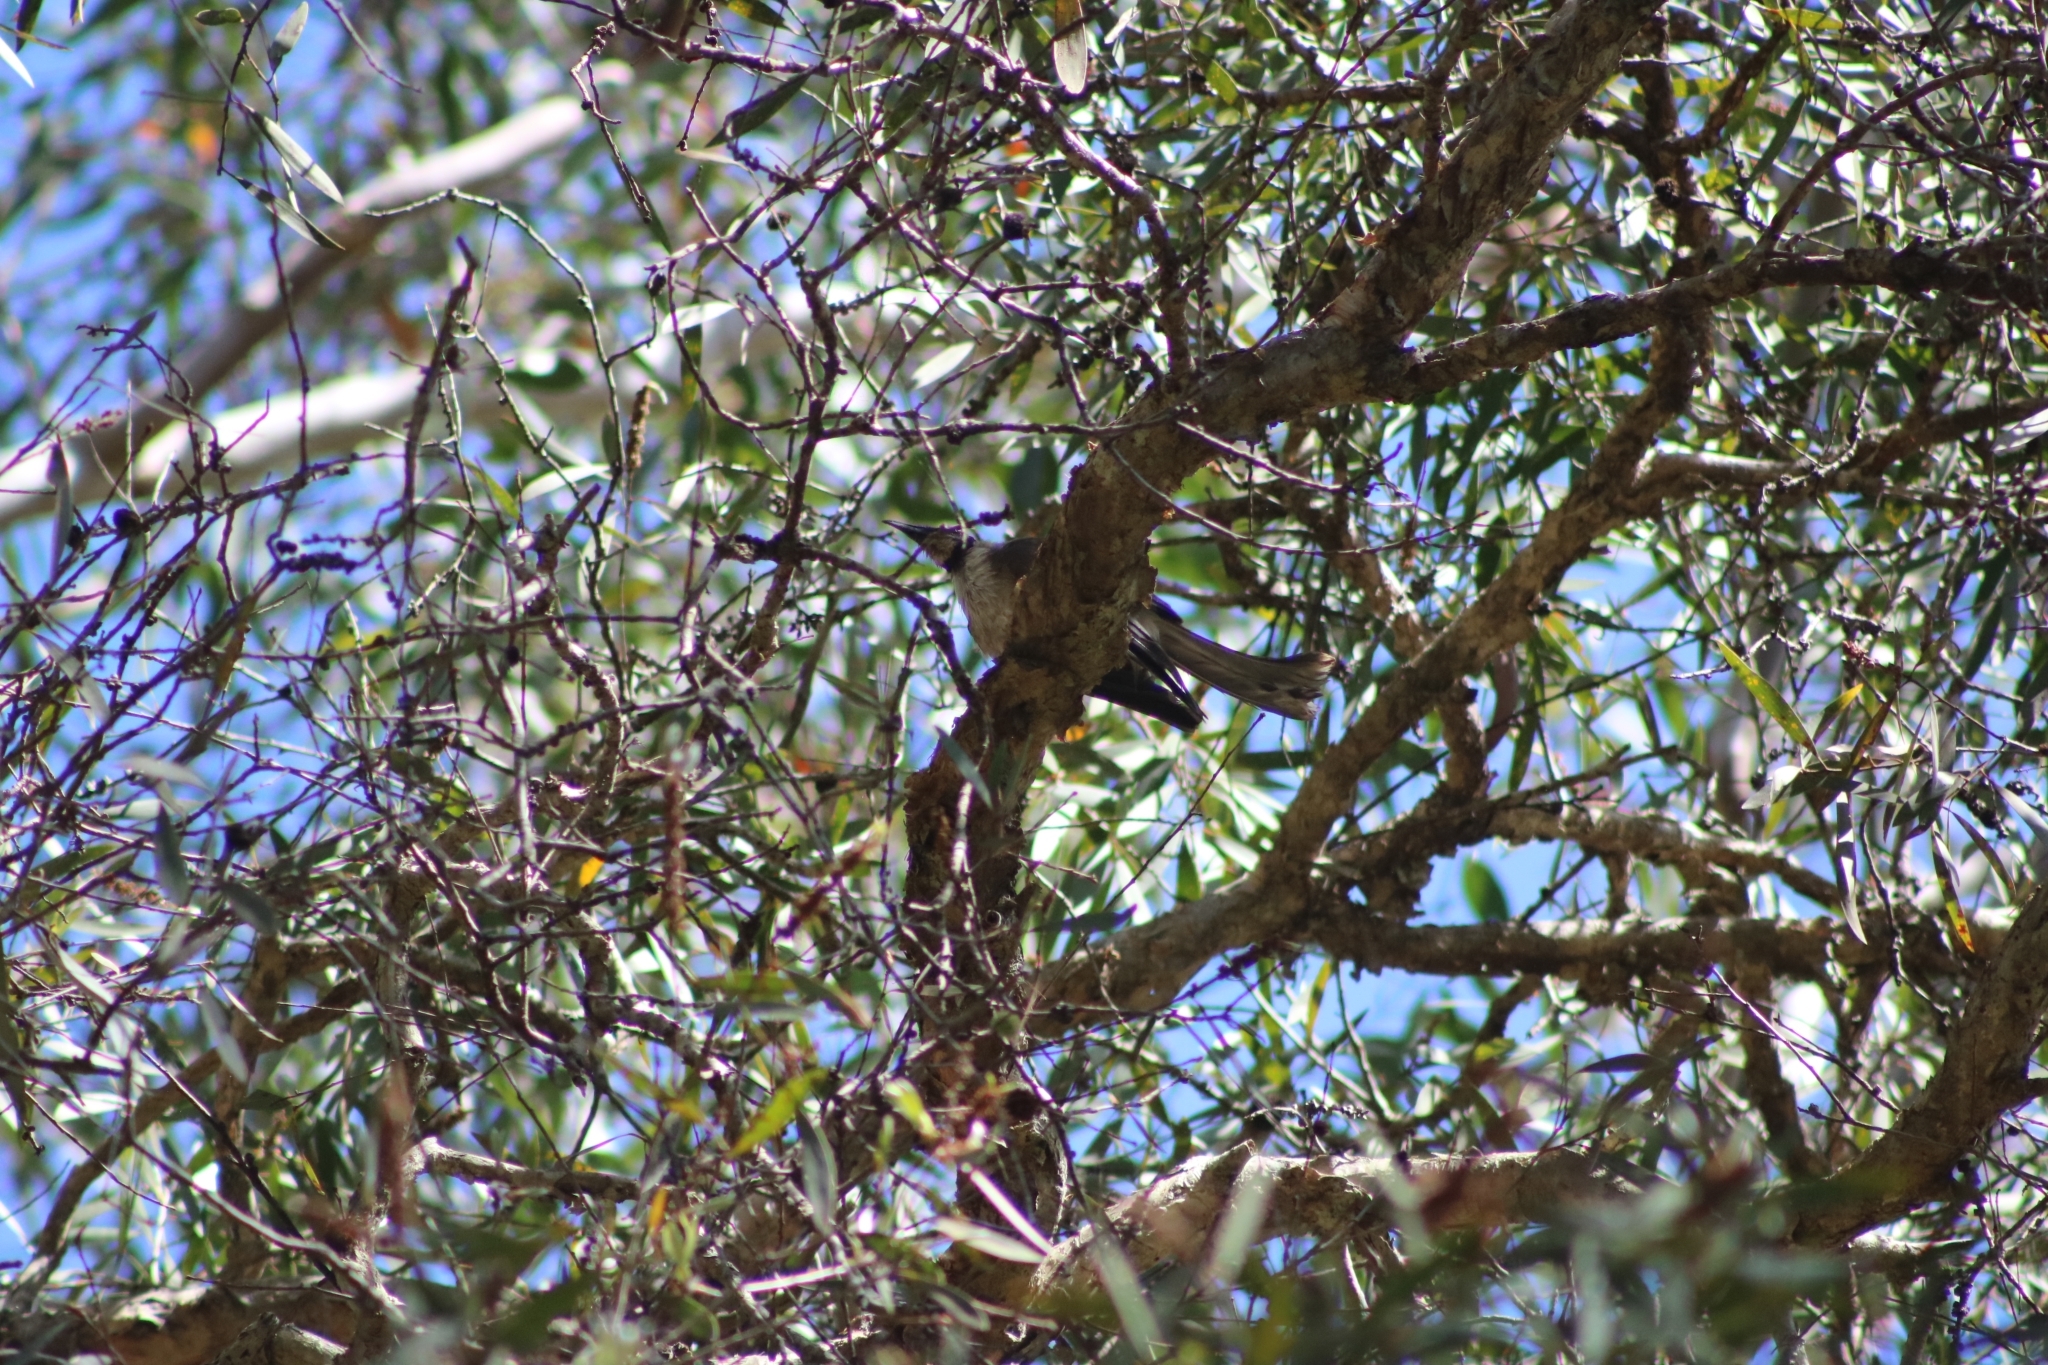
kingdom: Animalia
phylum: Chordata
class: Aves
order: Passeriformes
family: Meliphagidae
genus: Philemon
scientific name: Philemon corniculatus
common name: Noisy friarbird
